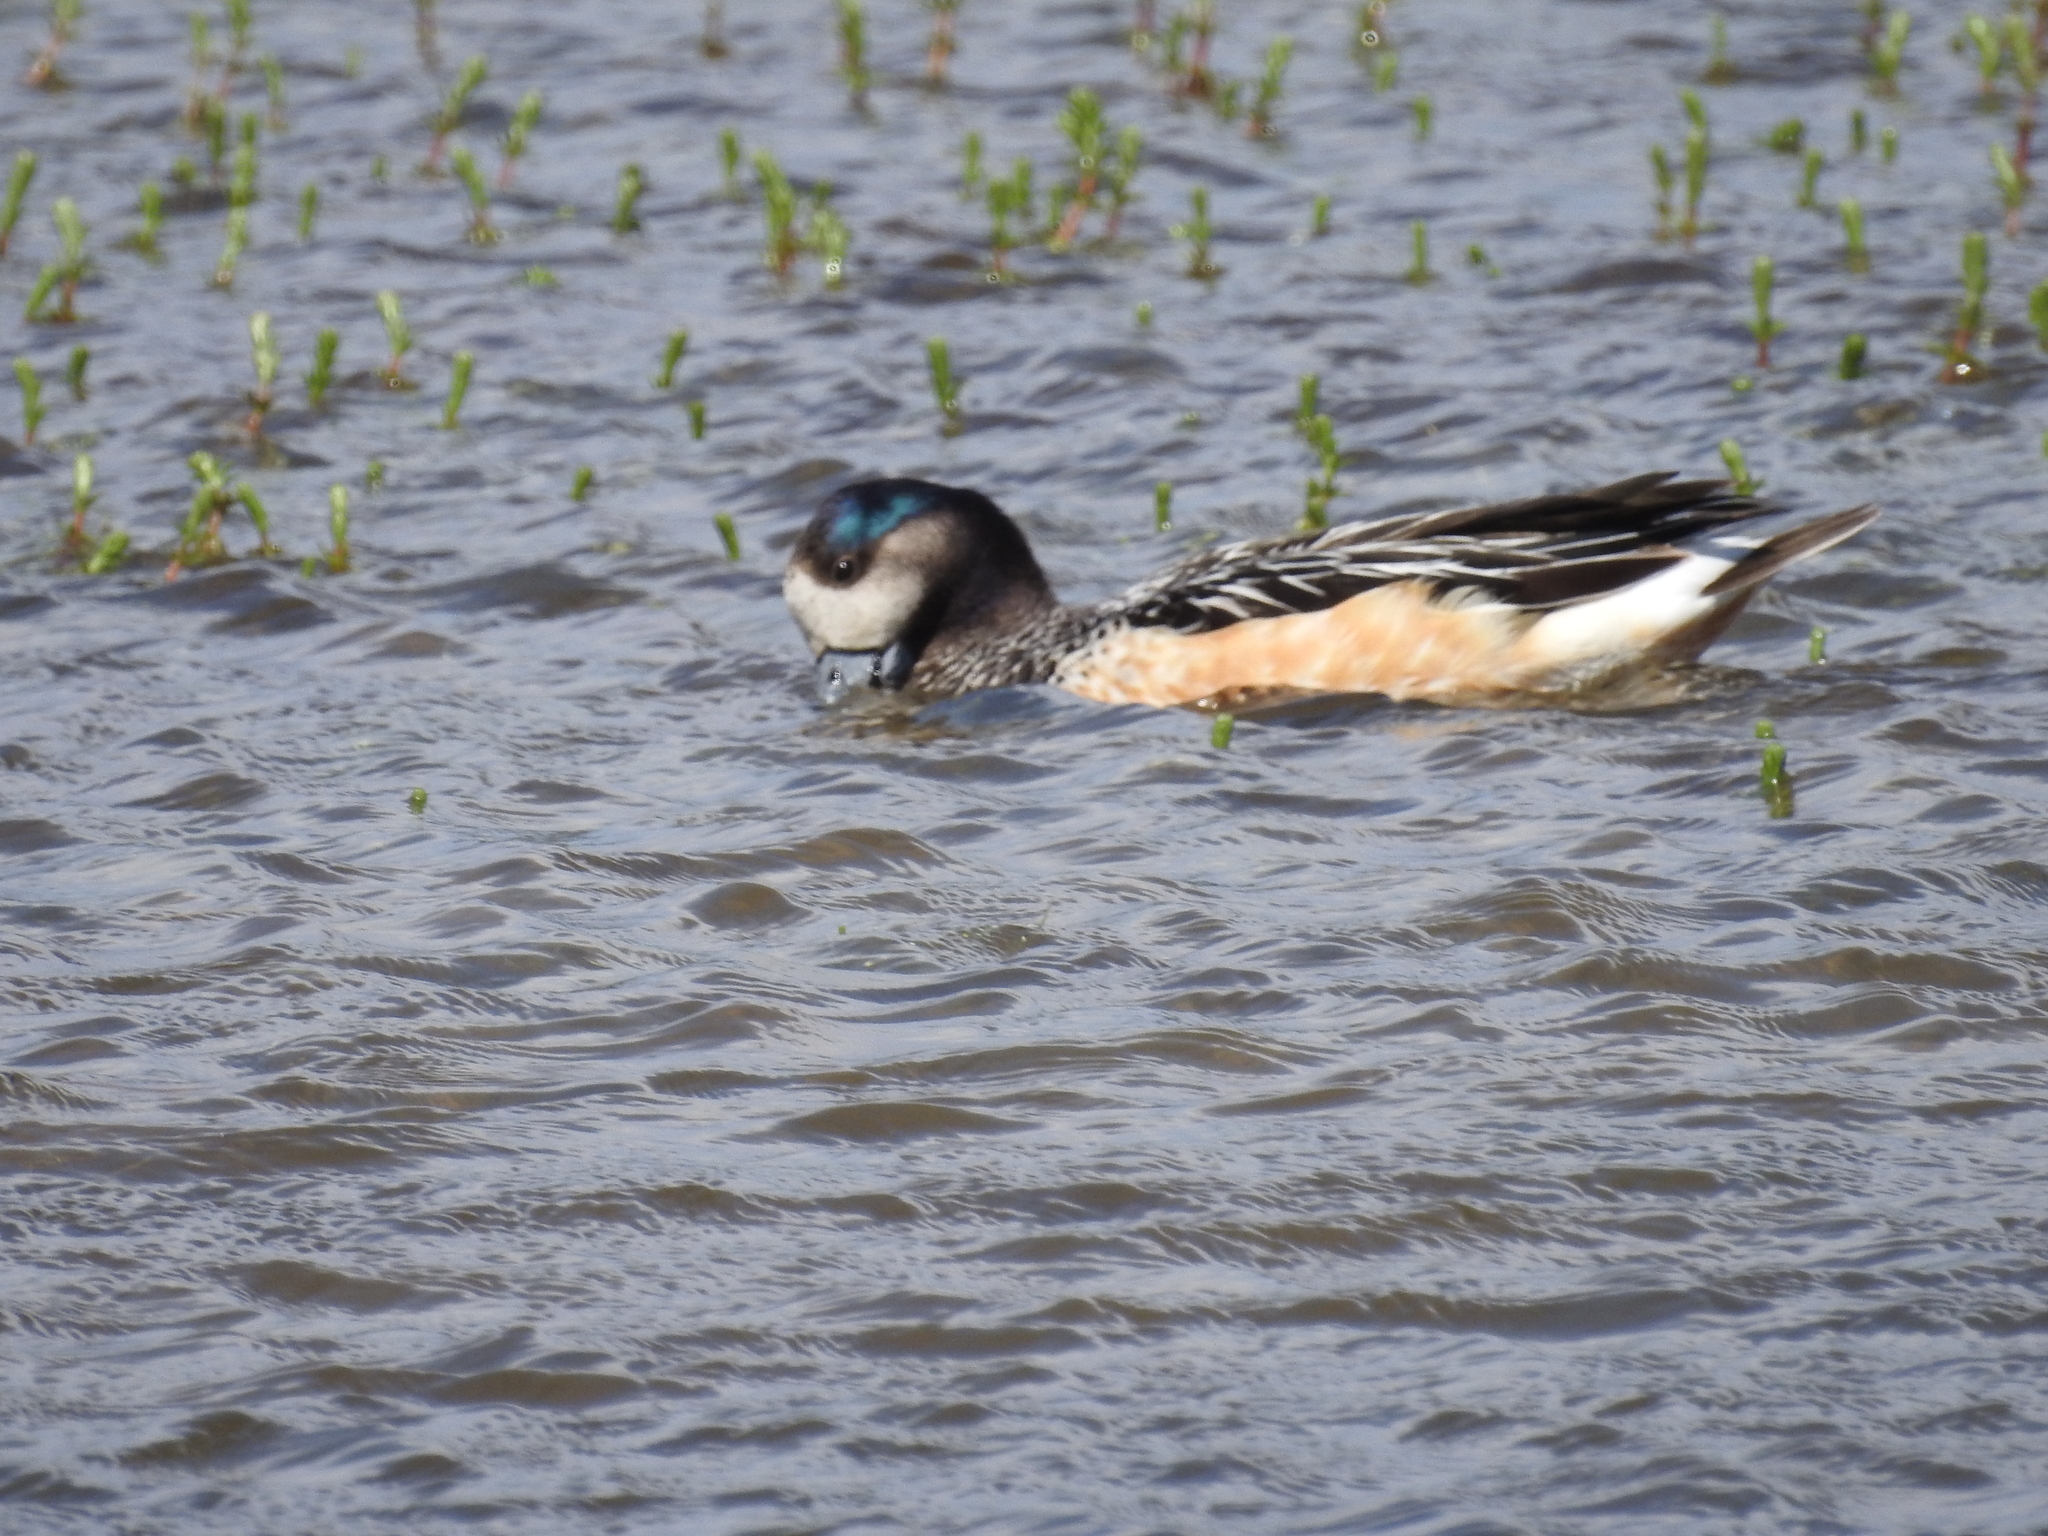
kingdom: Animalia
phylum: Chordata
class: Aves
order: Anseriformes
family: Anatidae
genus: Mareca
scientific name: Mareca sibilatrix
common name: Chiloe wigeon
